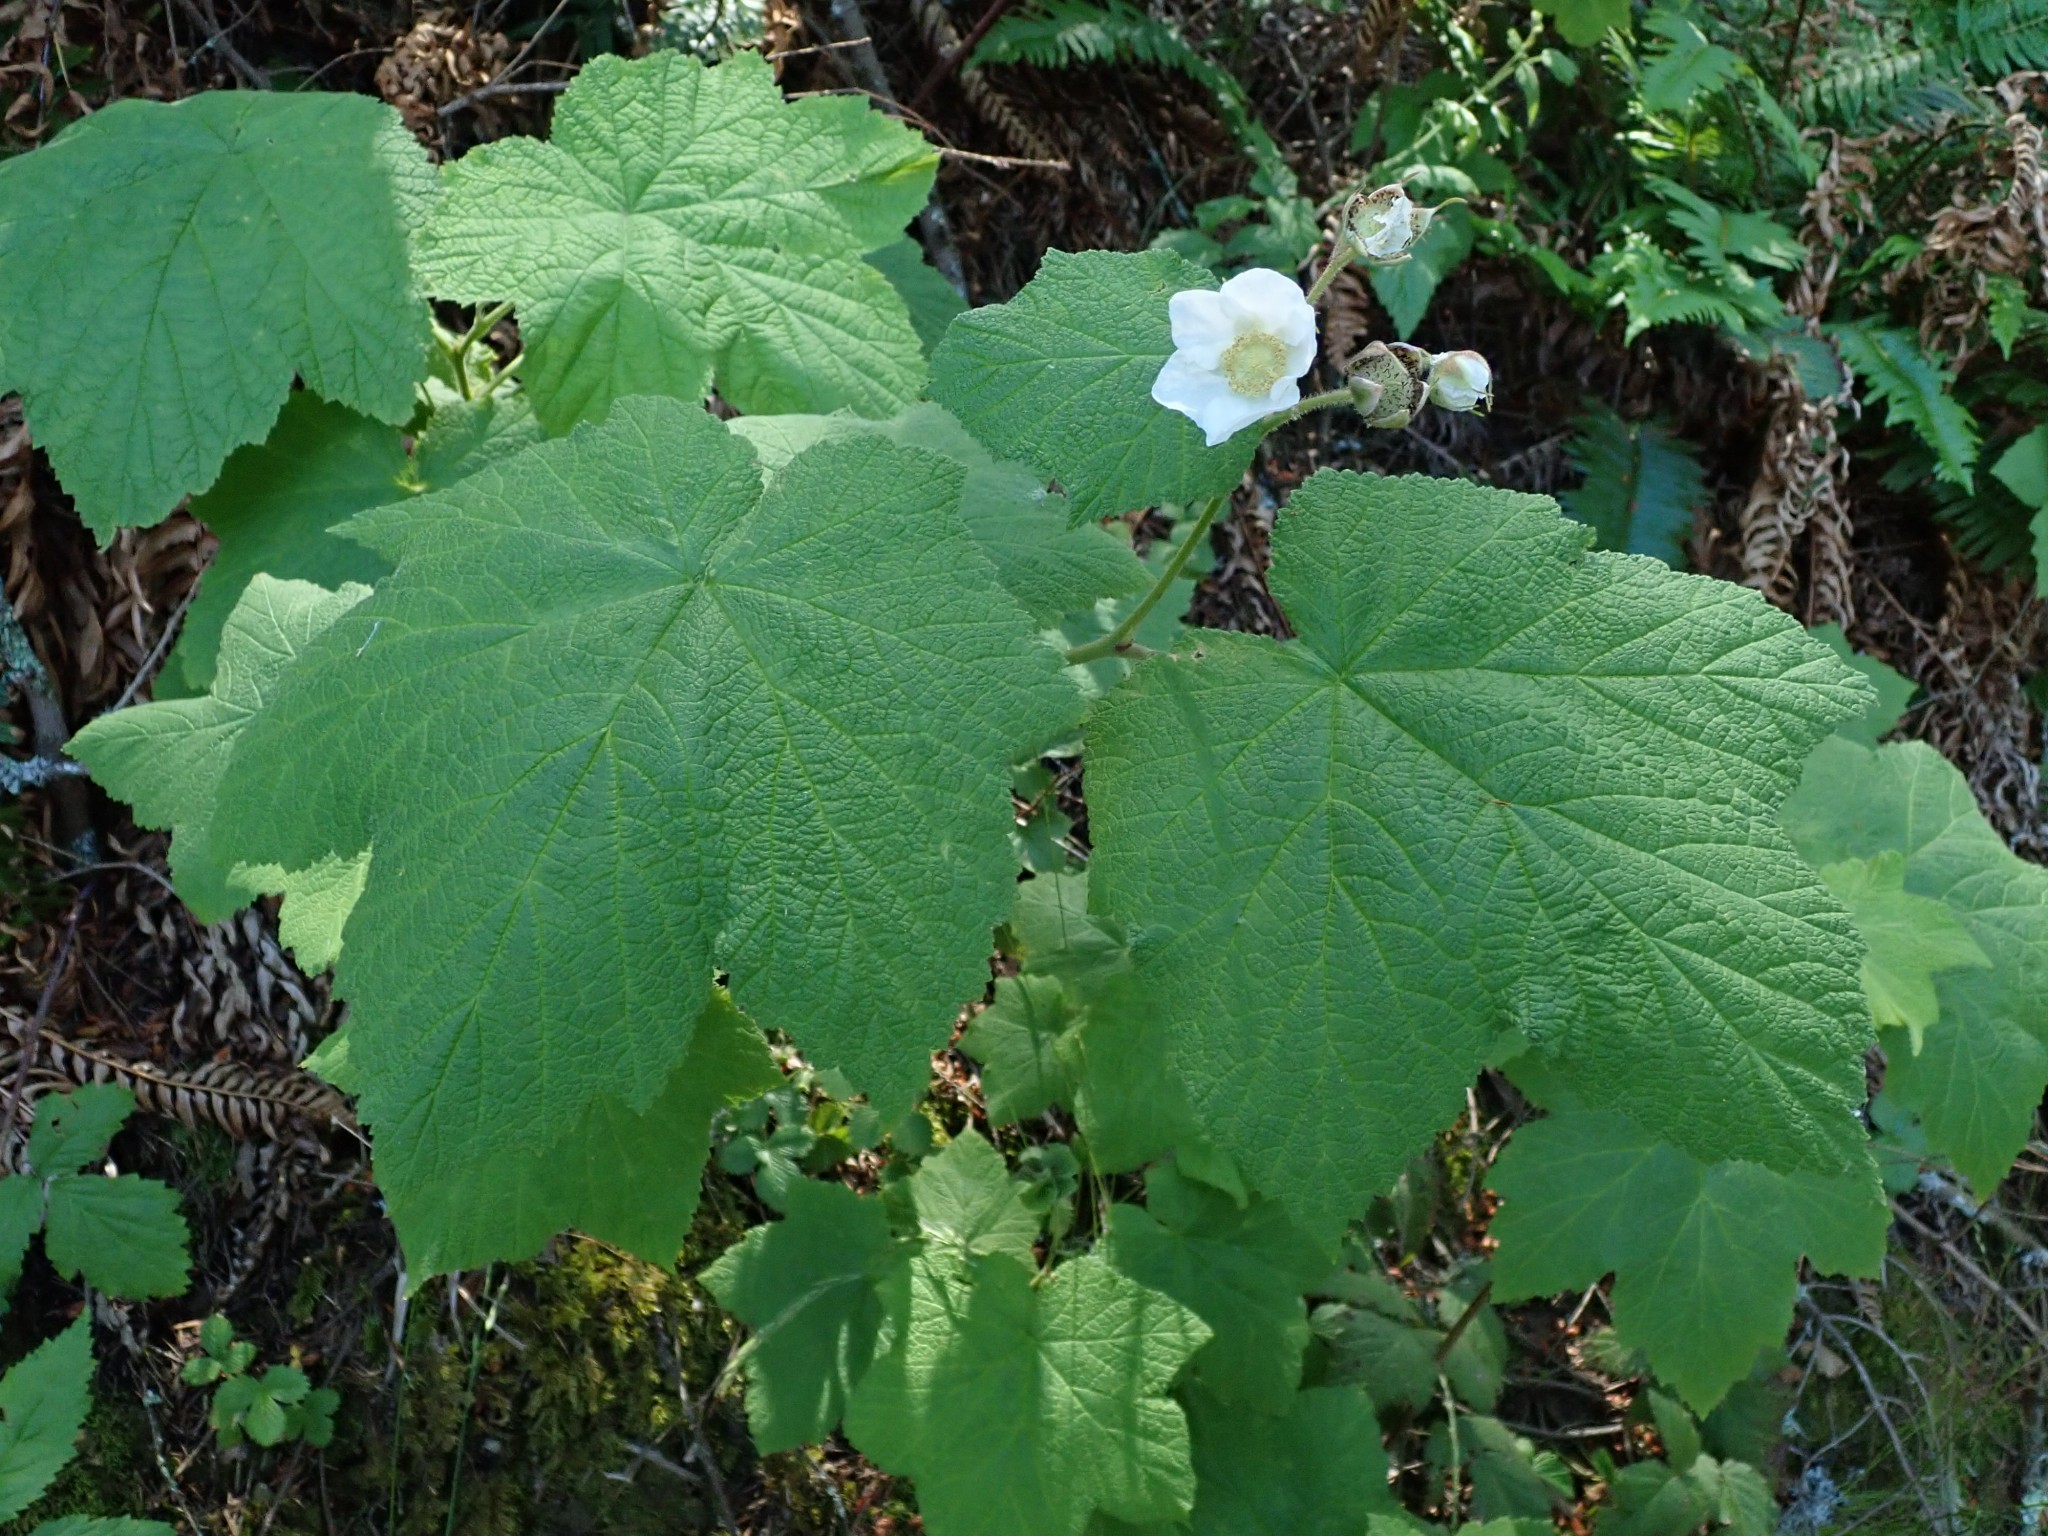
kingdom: Plantae
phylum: Tracheophyta
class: Magnoliopsida
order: Rosales
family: Rosaceae
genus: Rubus
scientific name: Rubus parviflorus
